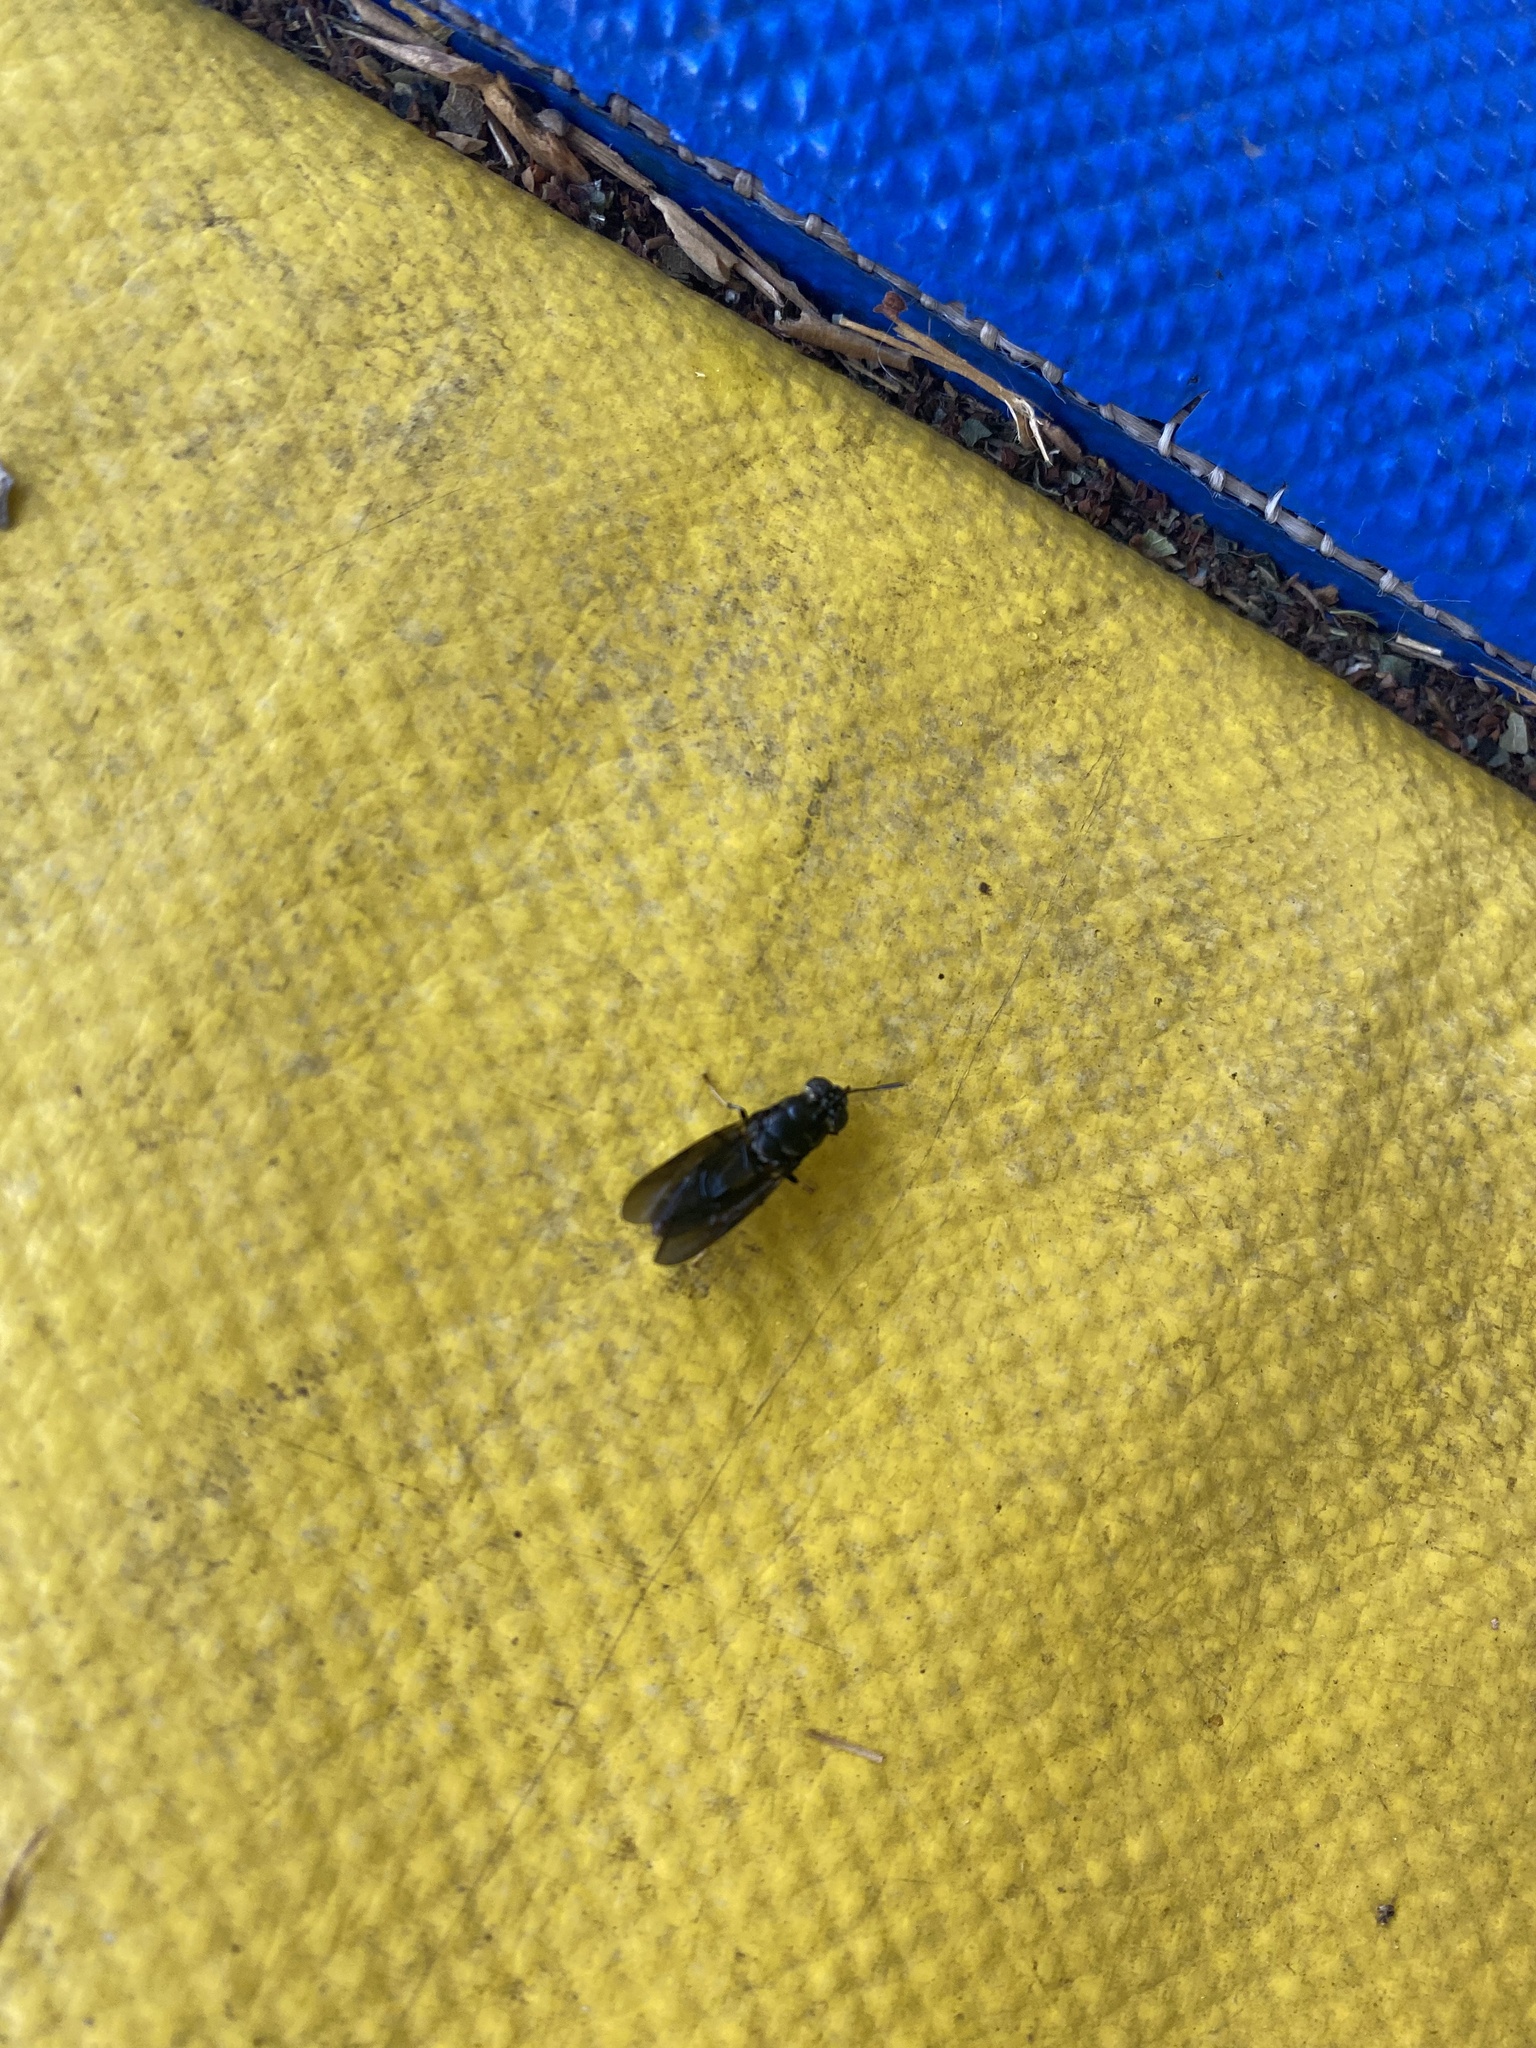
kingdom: Animalia
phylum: Arthropoda
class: Insecta
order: Diptera
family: Stratiomyidae
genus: Hermetia
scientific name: Hermetia illucens
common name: Black soldier fly
